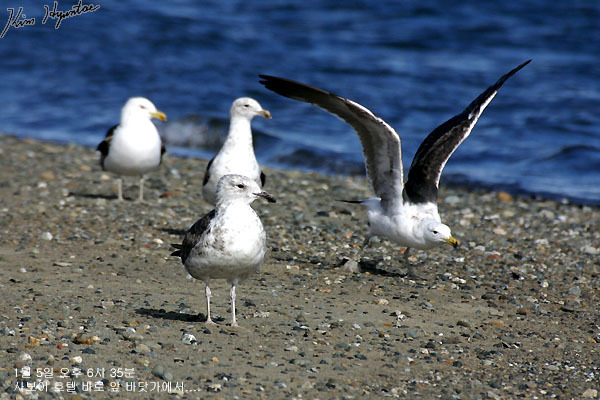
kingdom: Animalia
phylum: Chordata
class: Aves
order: Charadriiformes
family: Laridae
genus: Larus
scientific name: Larus dominicanus
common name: Kelp gull
